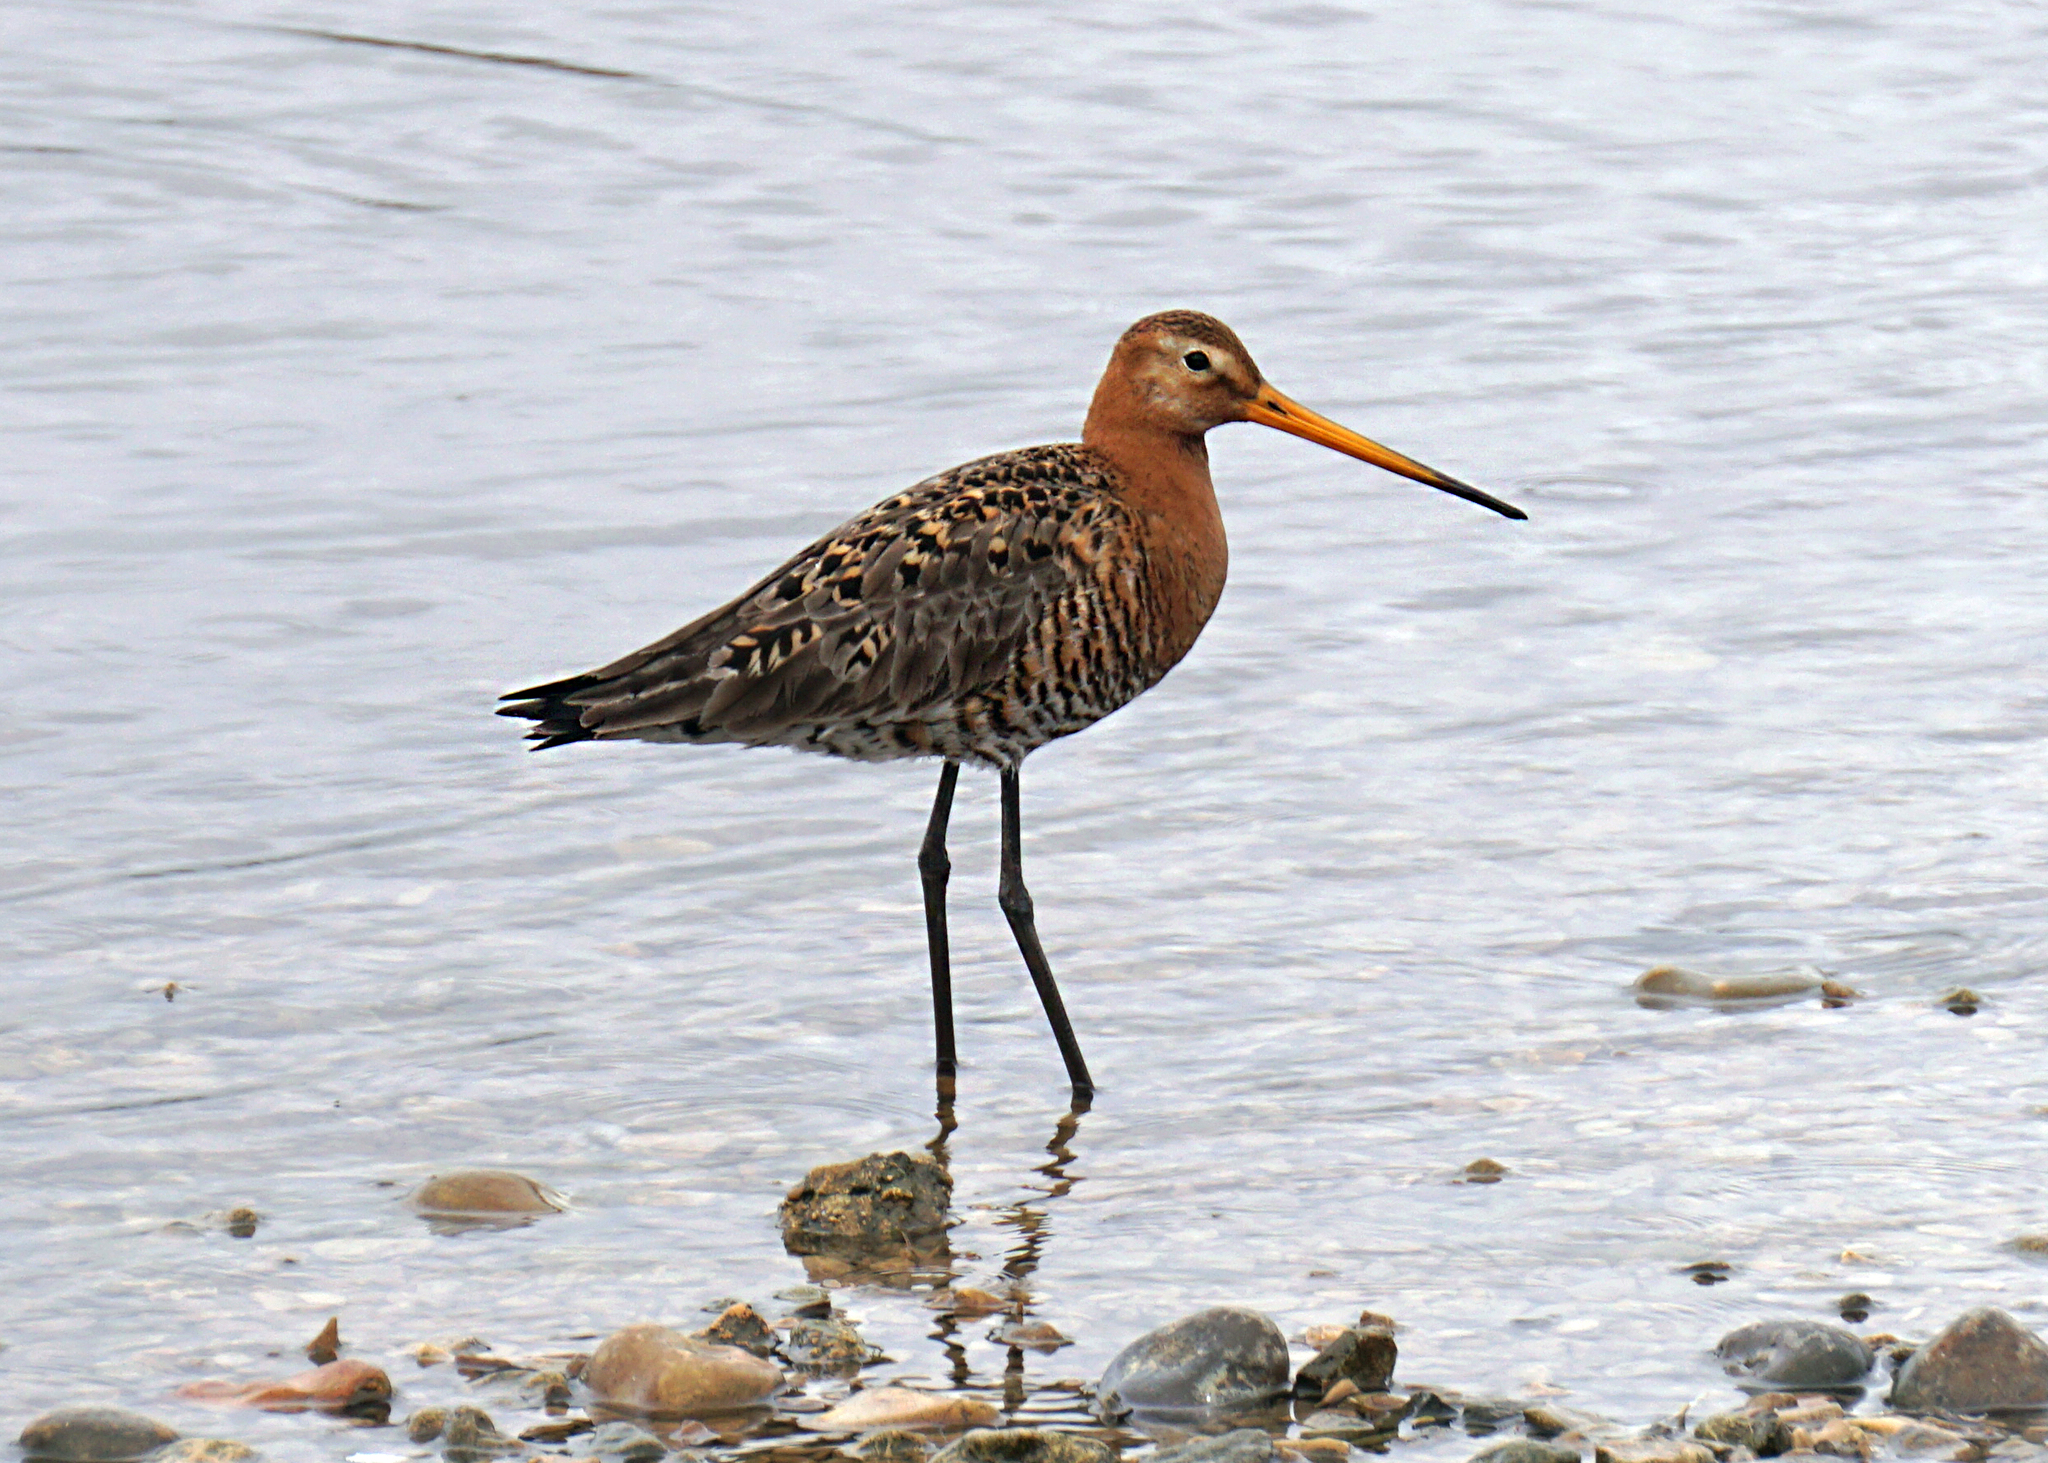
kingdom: Animalia
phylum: Chordata
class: Aves
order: Charadriiformes
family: Scolopacidae
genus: Limosa
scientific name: Limosa limosa
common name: Black-tailed godwit
